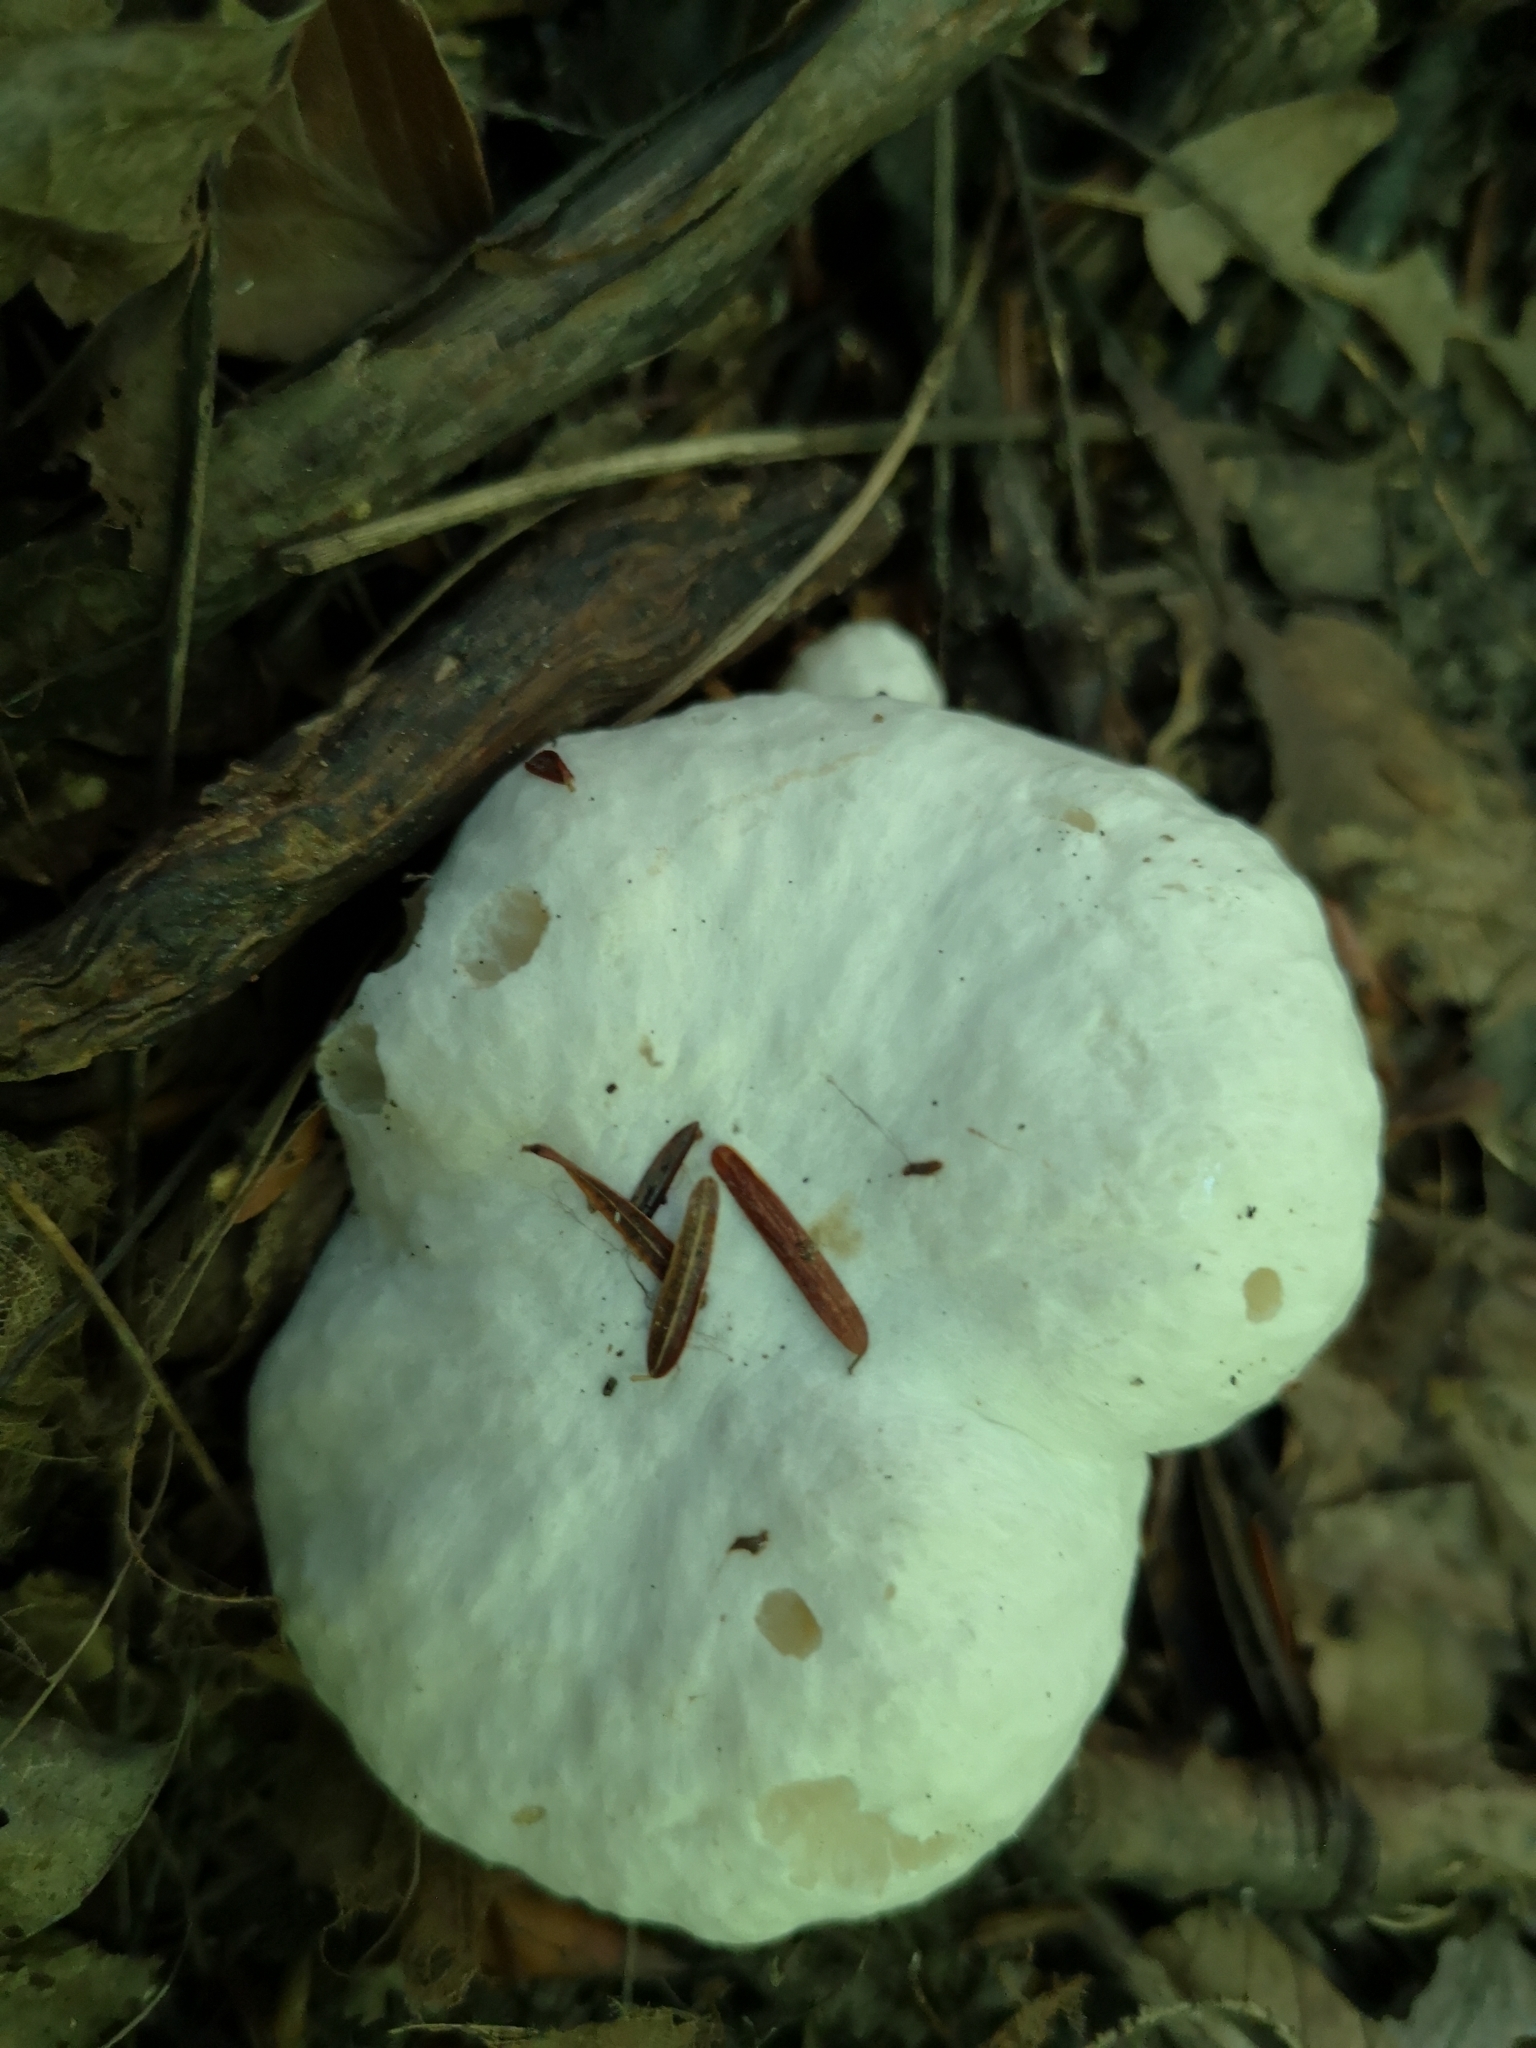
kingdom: Fungi
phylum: Basidiomycota
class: Agaricomycetes
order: Agaricales
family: Entolomataceae
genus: Entoloma
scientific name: Entoloma abortivum
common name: Aborted entoloma
